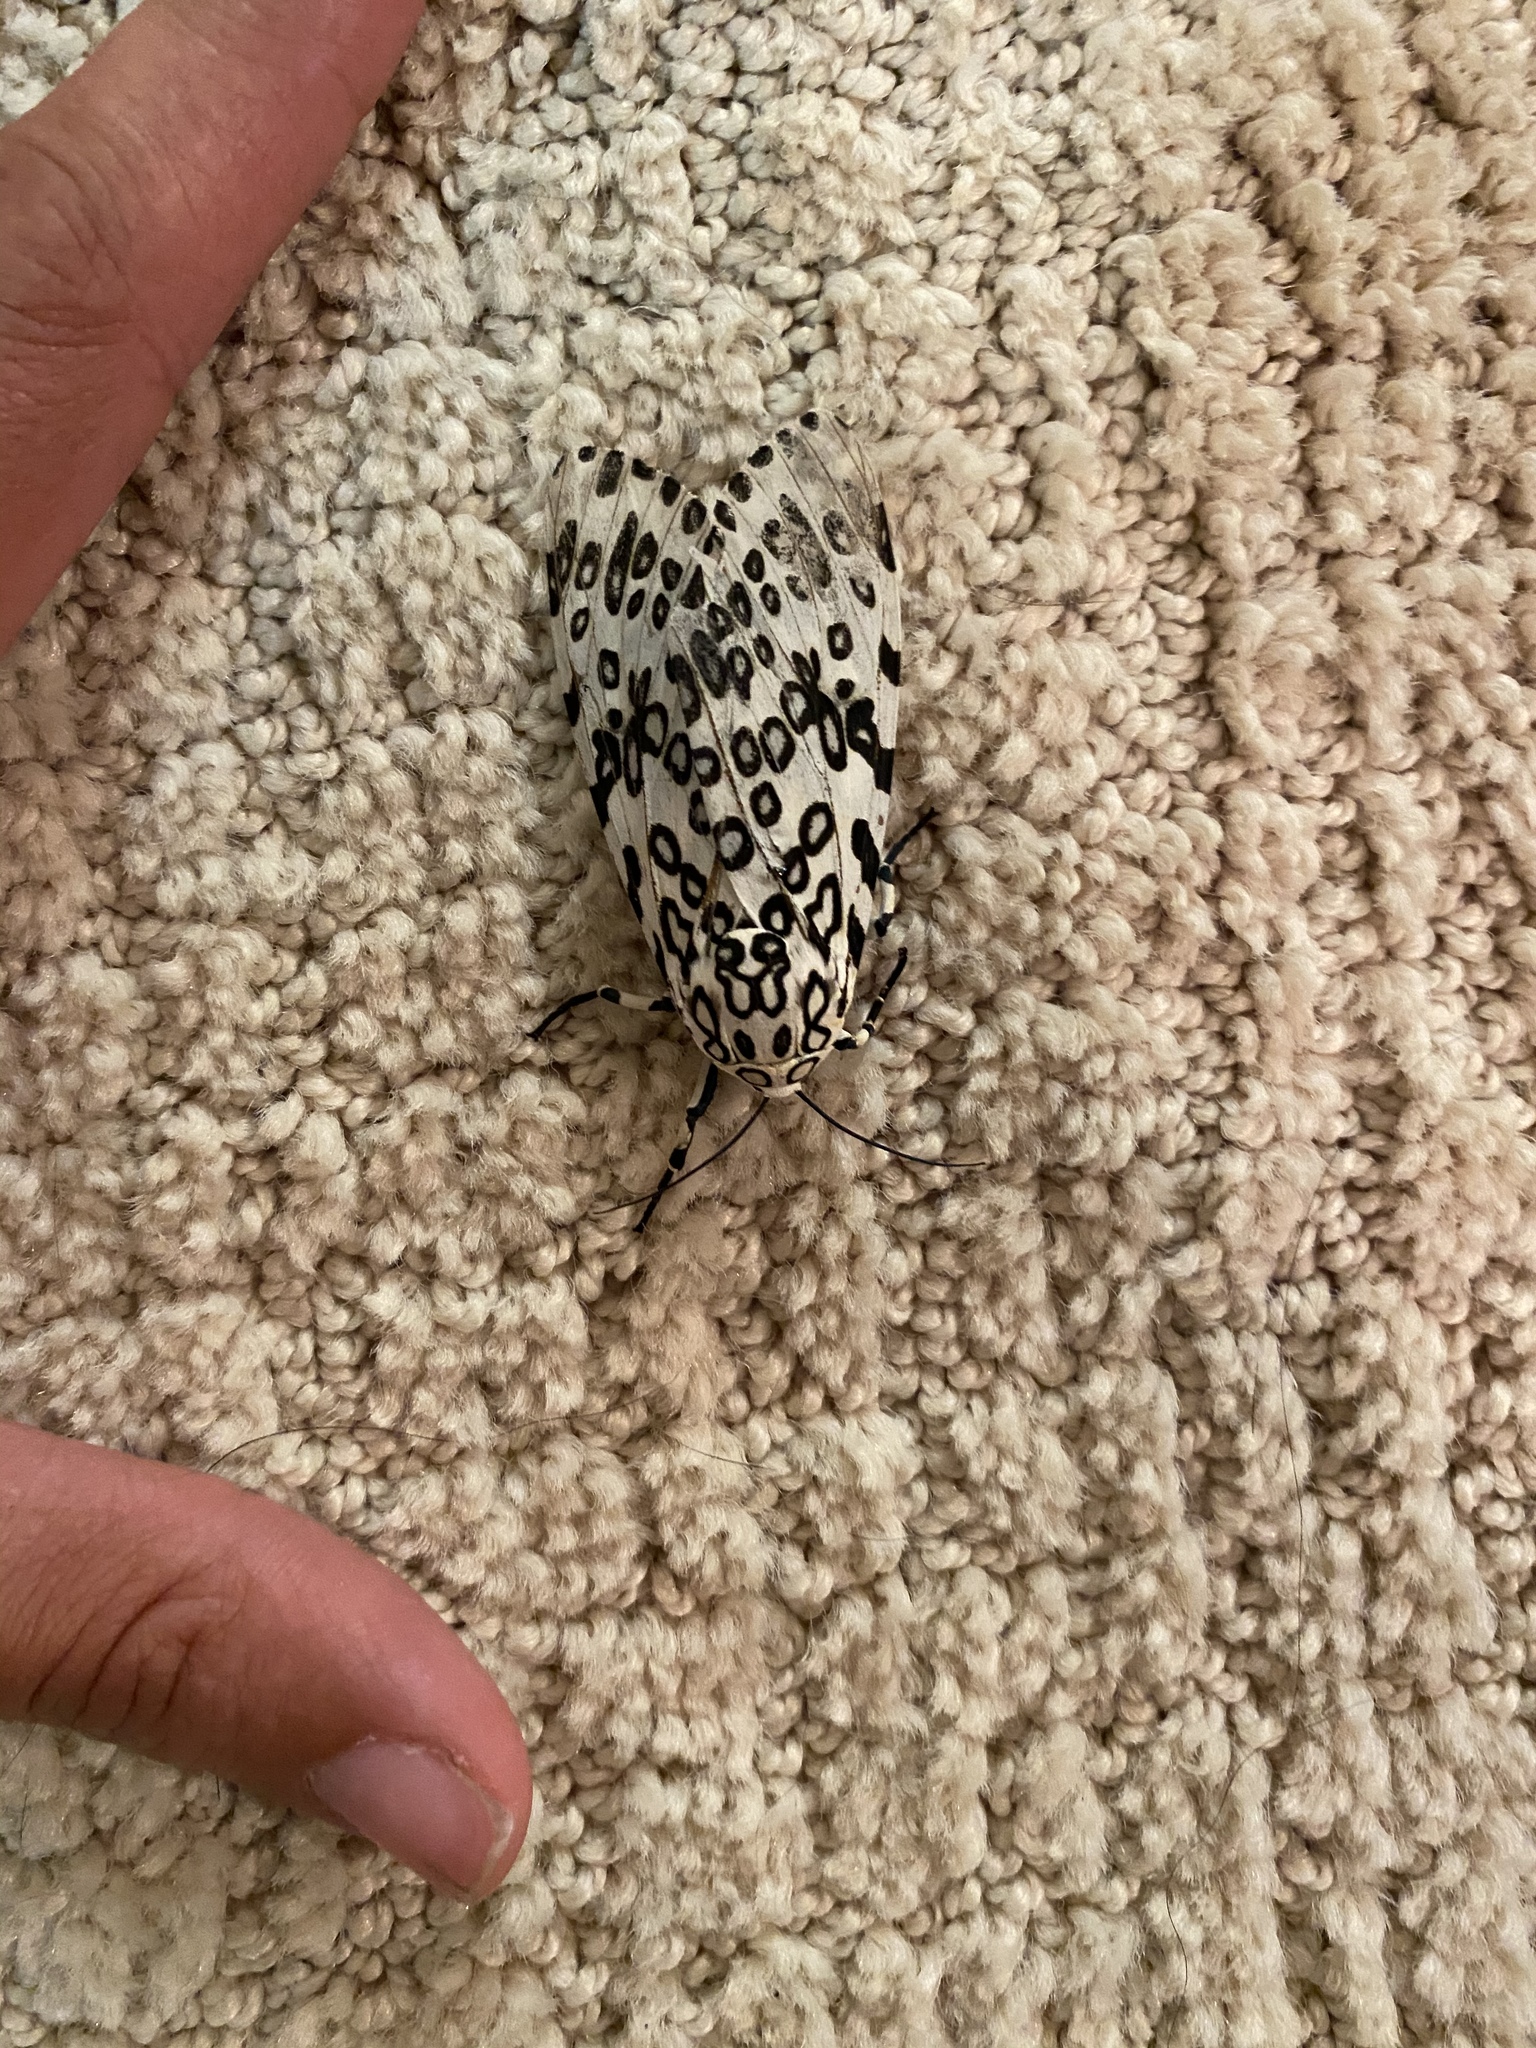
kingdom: Animalia
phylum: Arthropoda
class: Insecta
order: Lepidoptera
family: Erebidae
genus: Hypercompe
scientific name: Hypercompe scribonia
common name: Giant leopard moth
